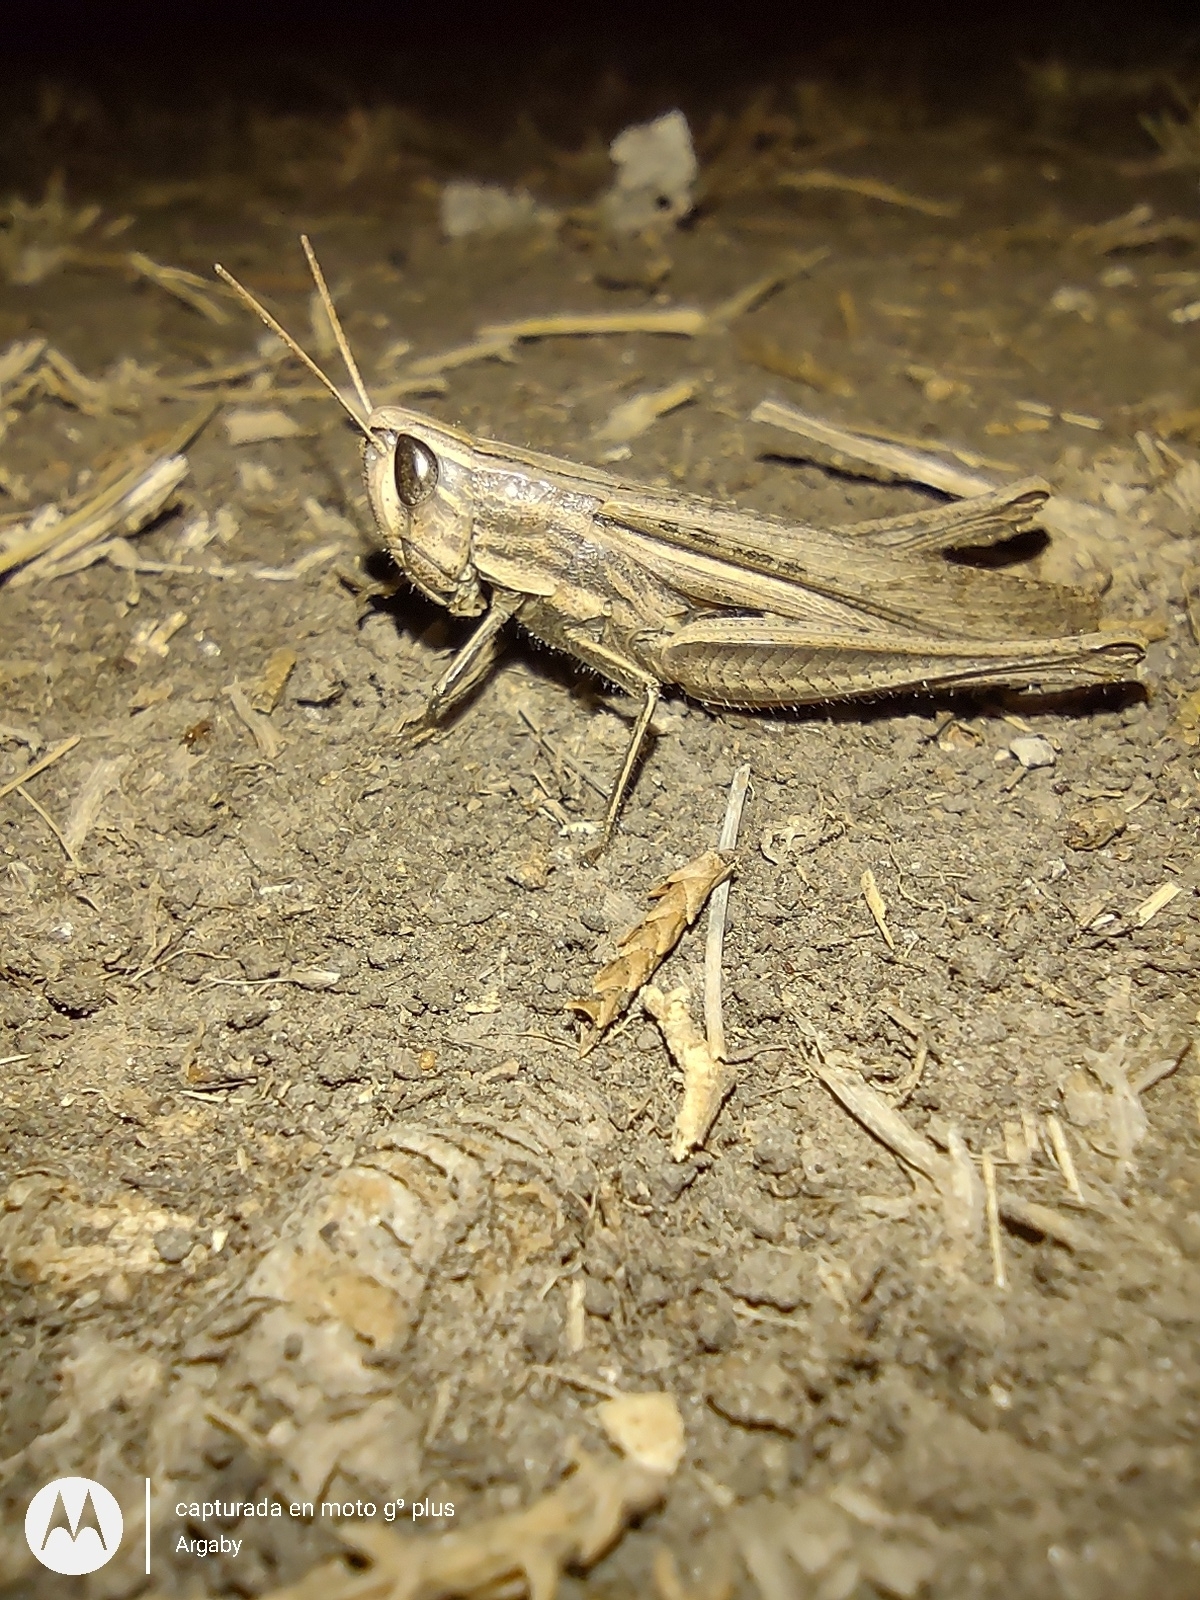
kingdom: Animalia
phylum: Arthropoda
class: Insecta
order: Orthoptera
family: Acrididae
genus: Amblytropidia
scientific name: Amblytropidia australis
